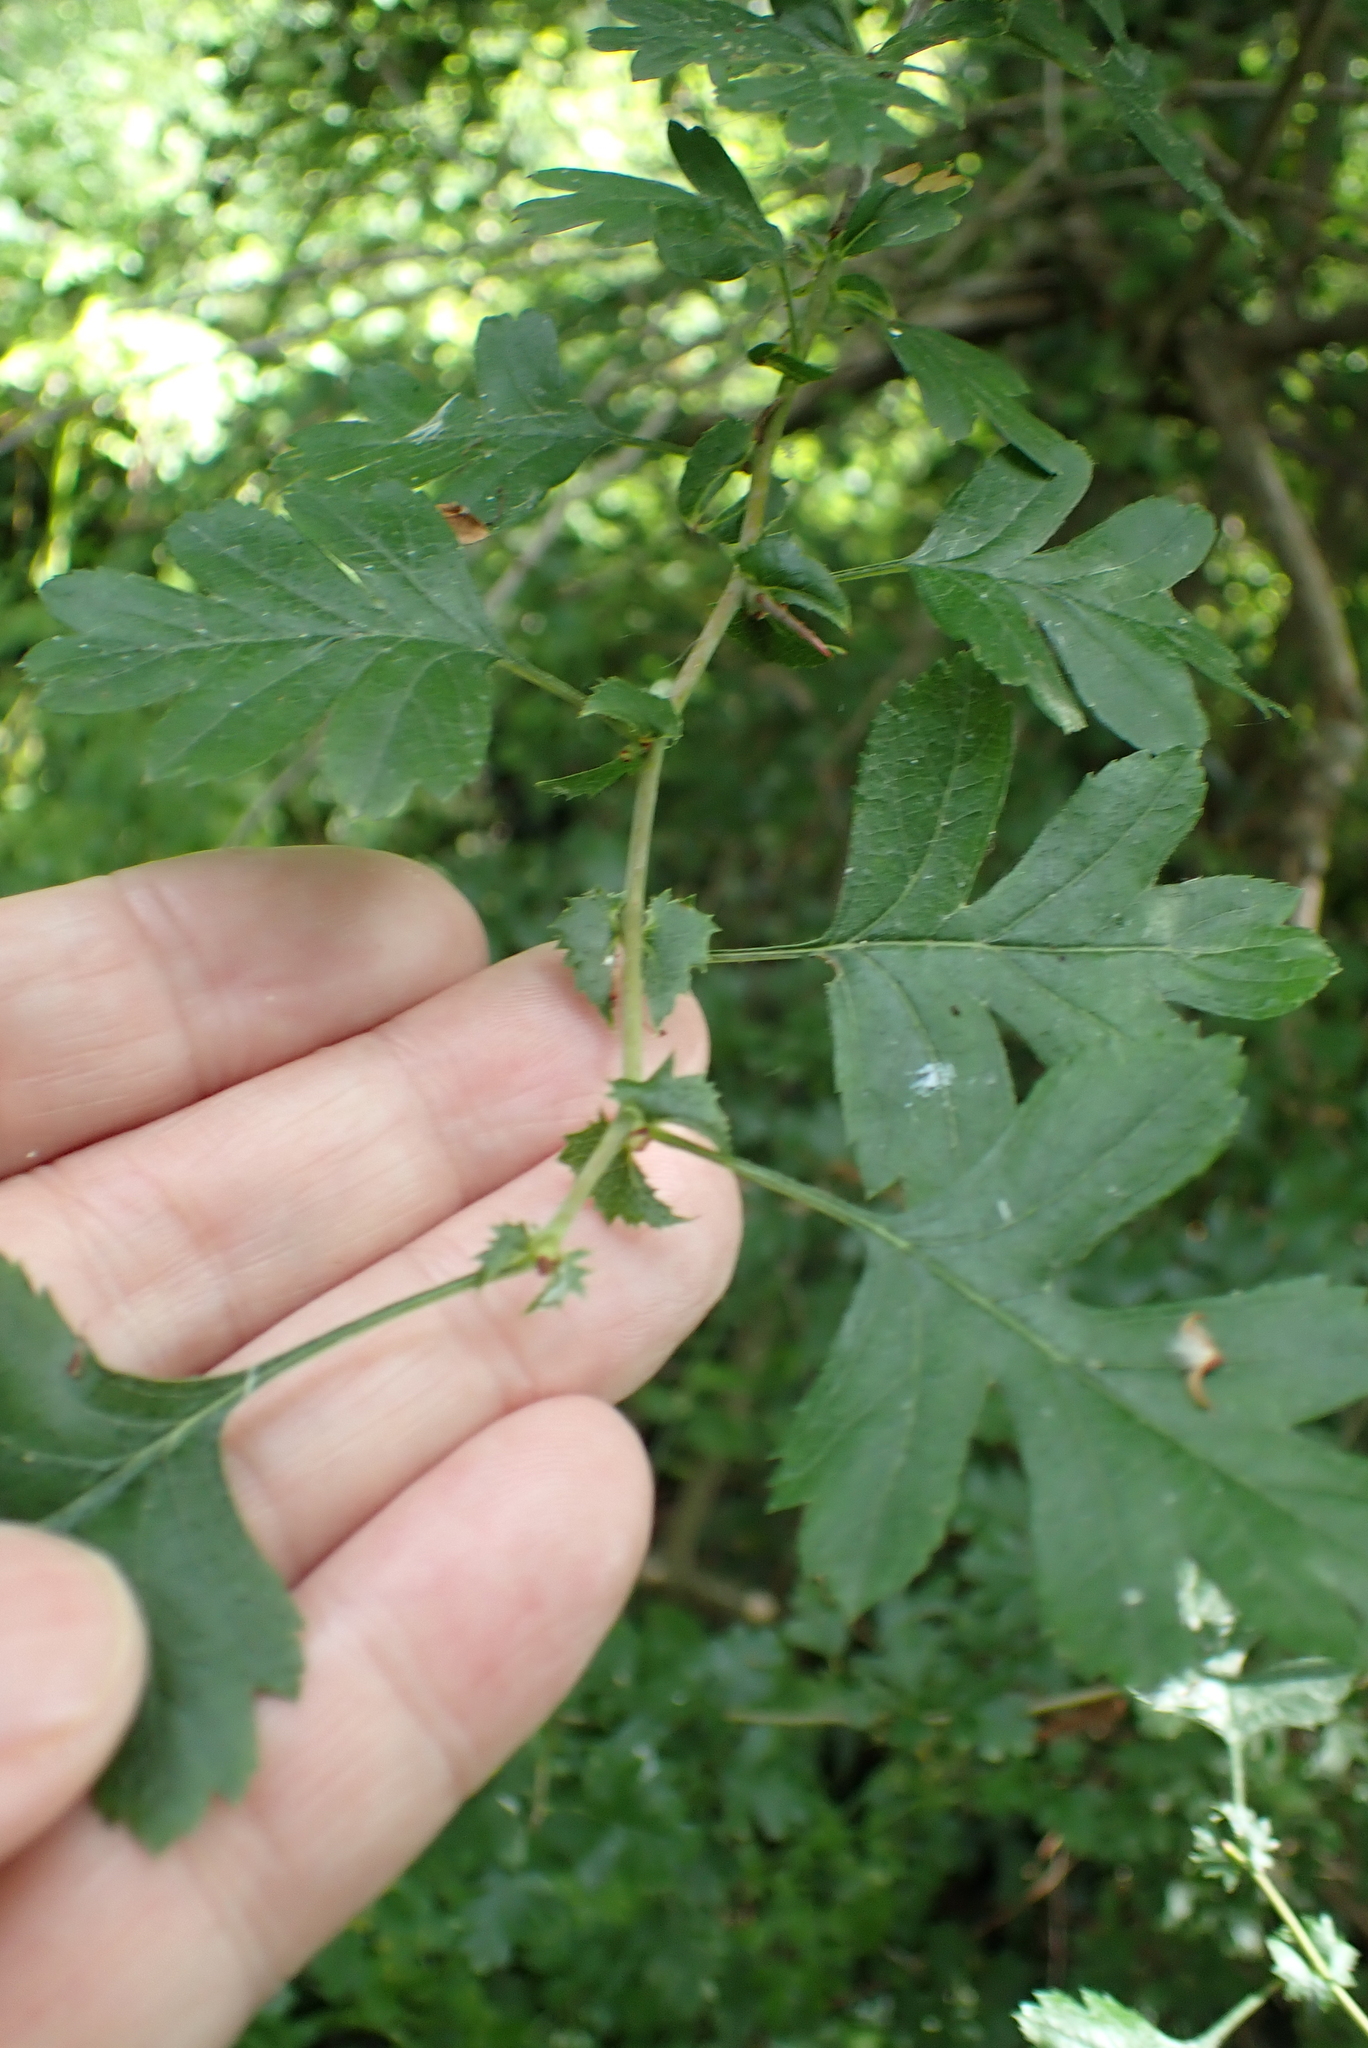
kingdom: Plantae
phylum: Tracheophyta
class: Magnoliopsida
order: Rosales
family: Rosaceae
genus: Crataegus
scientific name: Crataegus monogyna
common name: Hawthorn
